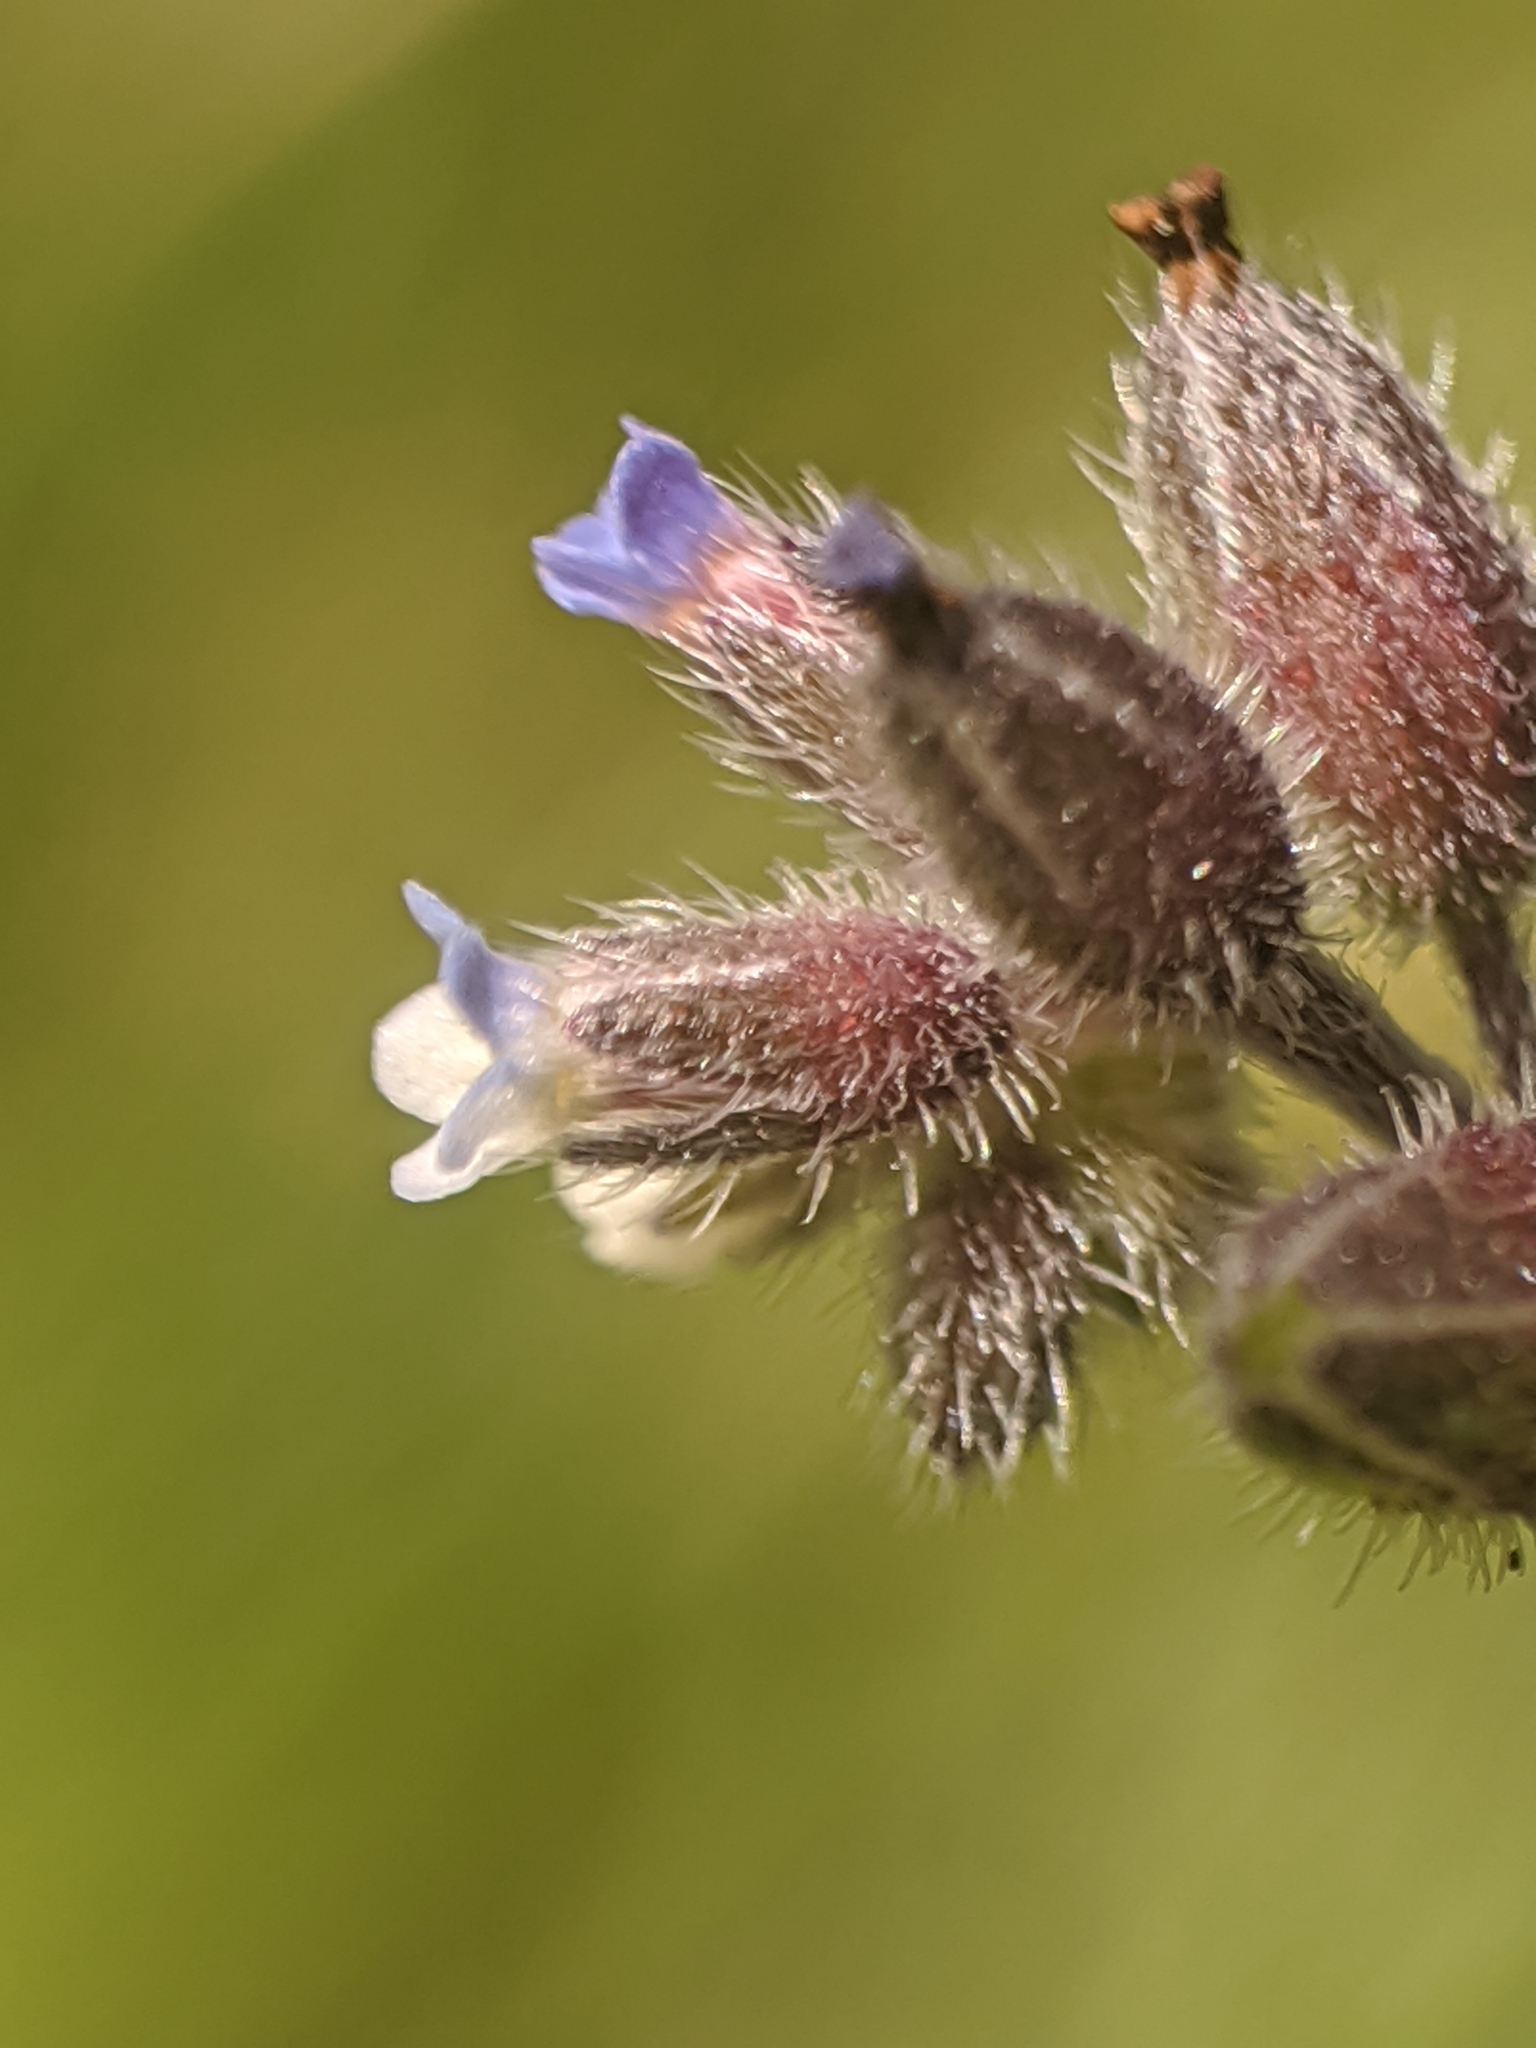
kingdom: Plantae
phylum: Tracheophyta
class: Magnoliopsida
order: Boraginales
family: Boraginaceae
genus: Myosotis
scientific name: Myosotis discolor
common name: Changing forget-me-not
